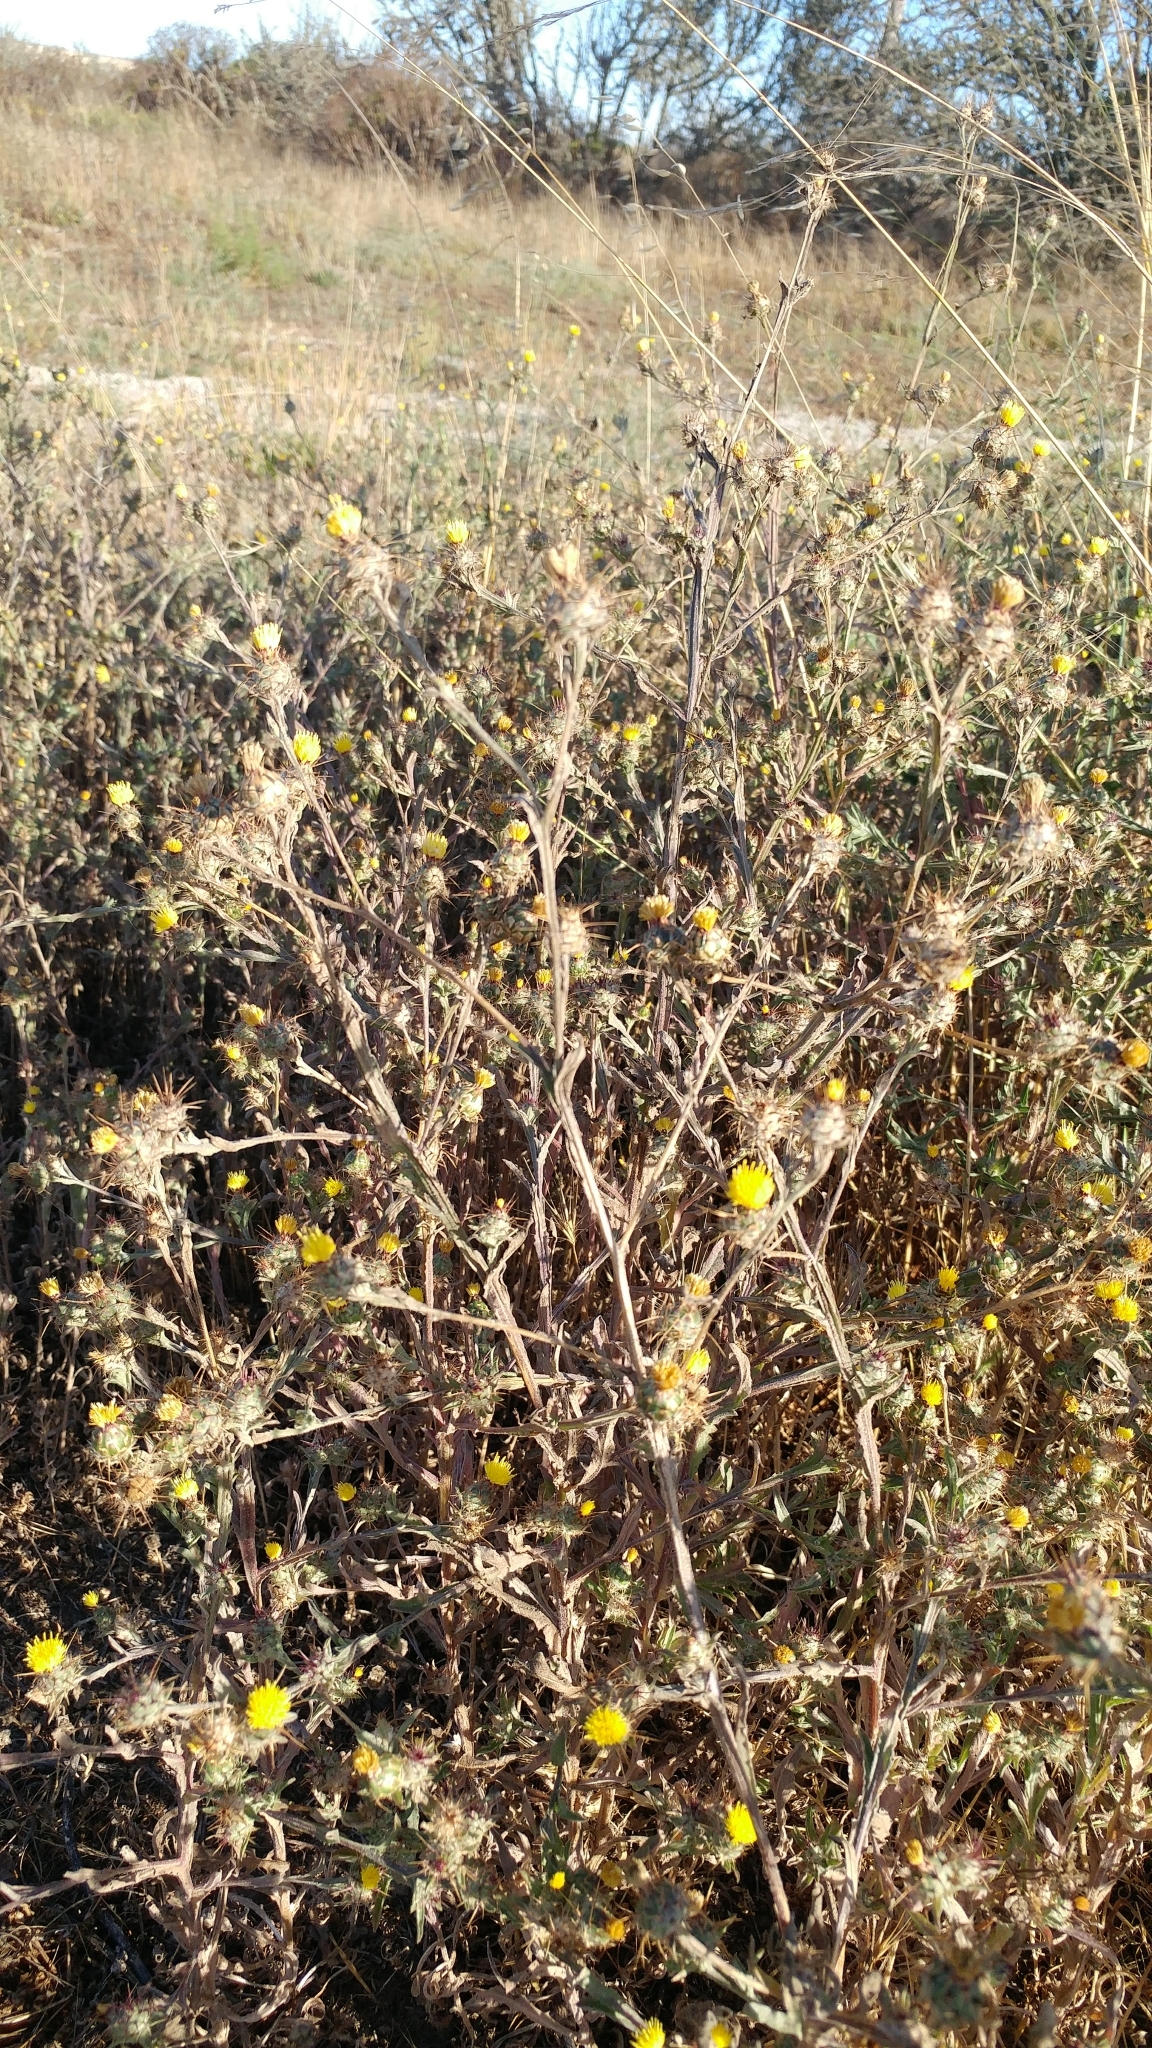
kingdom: Plantae
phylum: Tracheophyta
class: Magnoliopsida
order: Asterales
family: Asteraceae
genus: Centaurea
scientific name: Centaurea melitensis
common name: Maltese star-thistle
